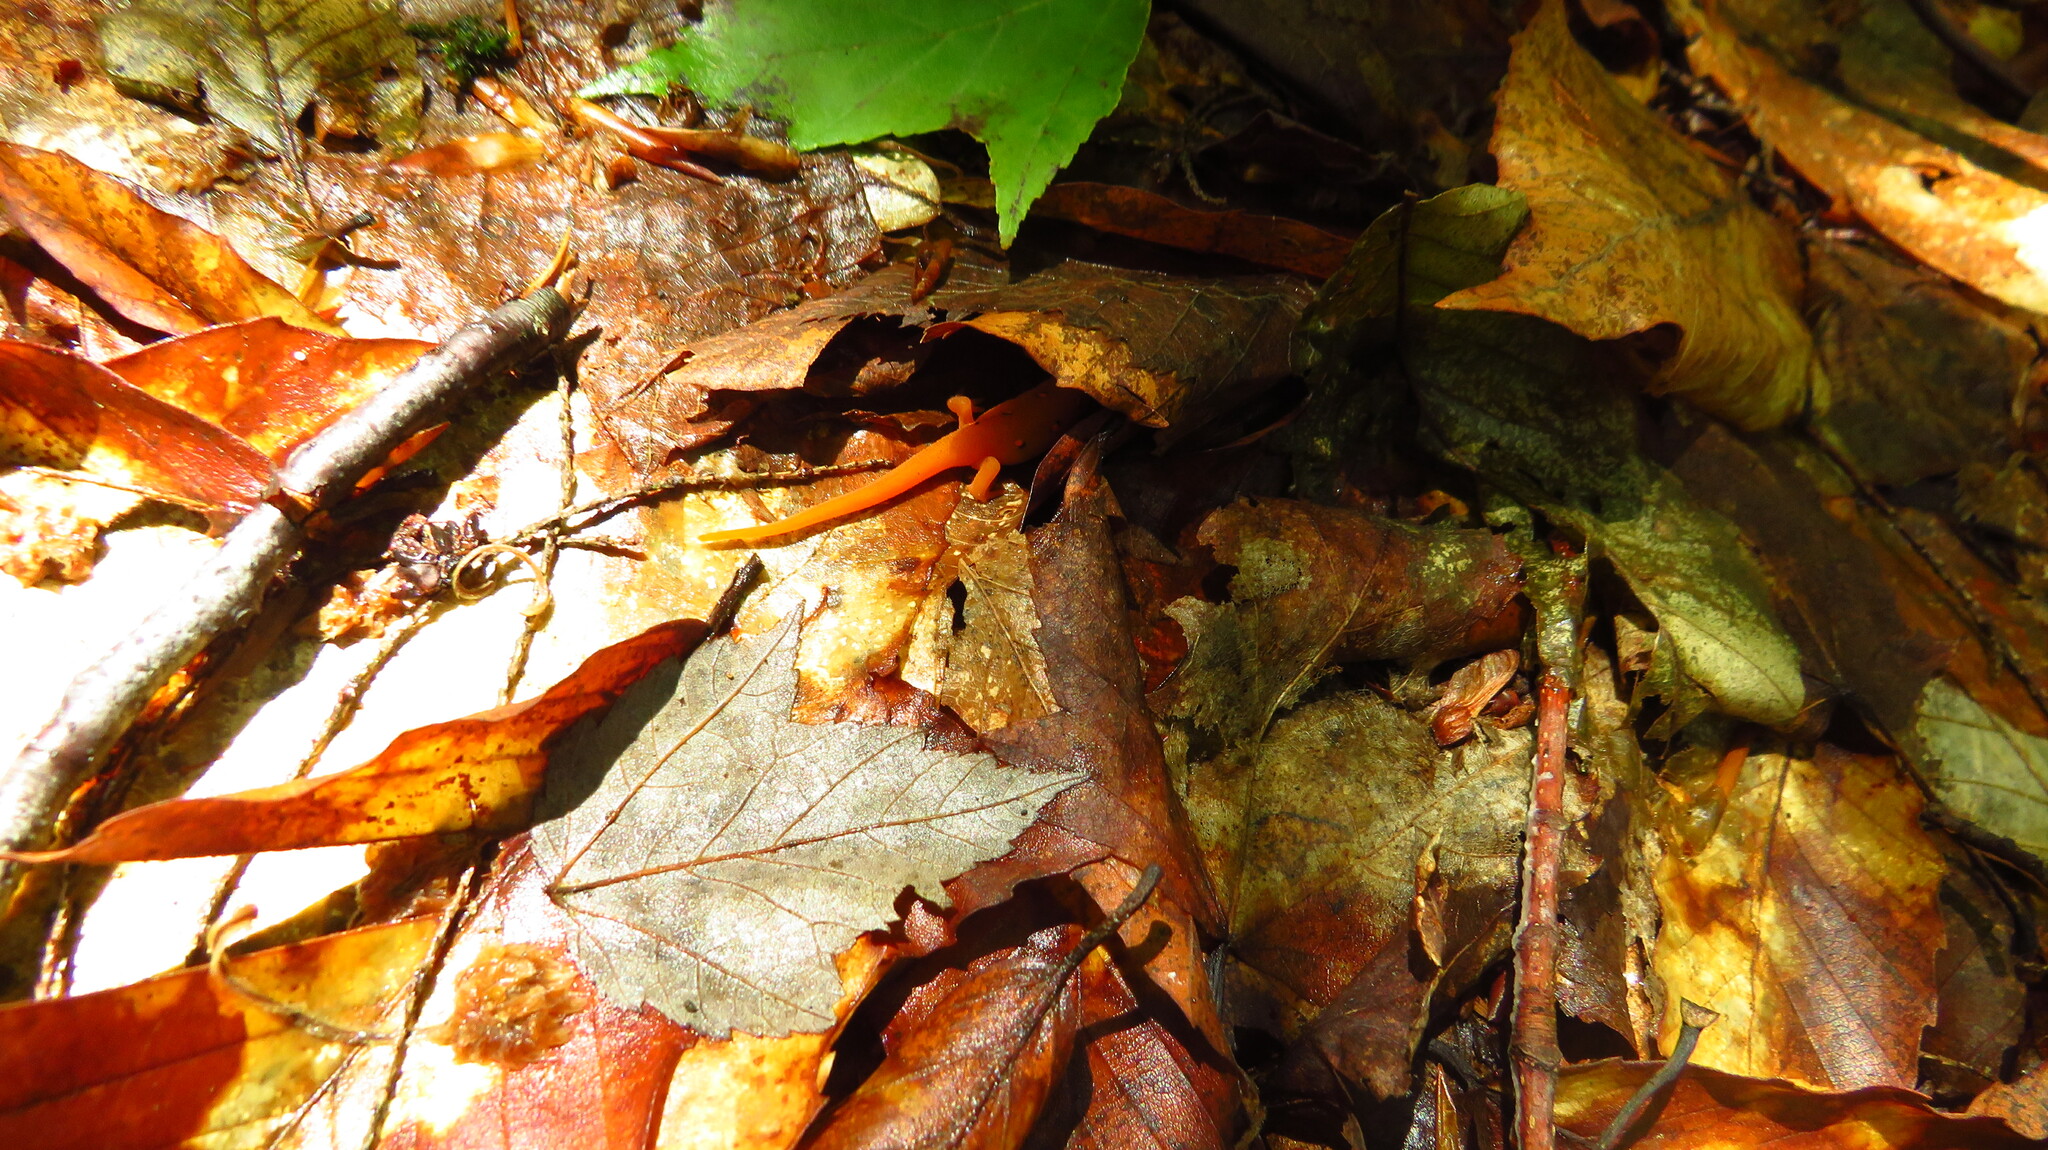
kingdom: Animalia
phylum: Chordata
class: Amphibia
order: Caudata
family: Salamandridae
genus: Notophthalmus
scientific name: Notophthalmus viridescens
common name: Eastern newt
